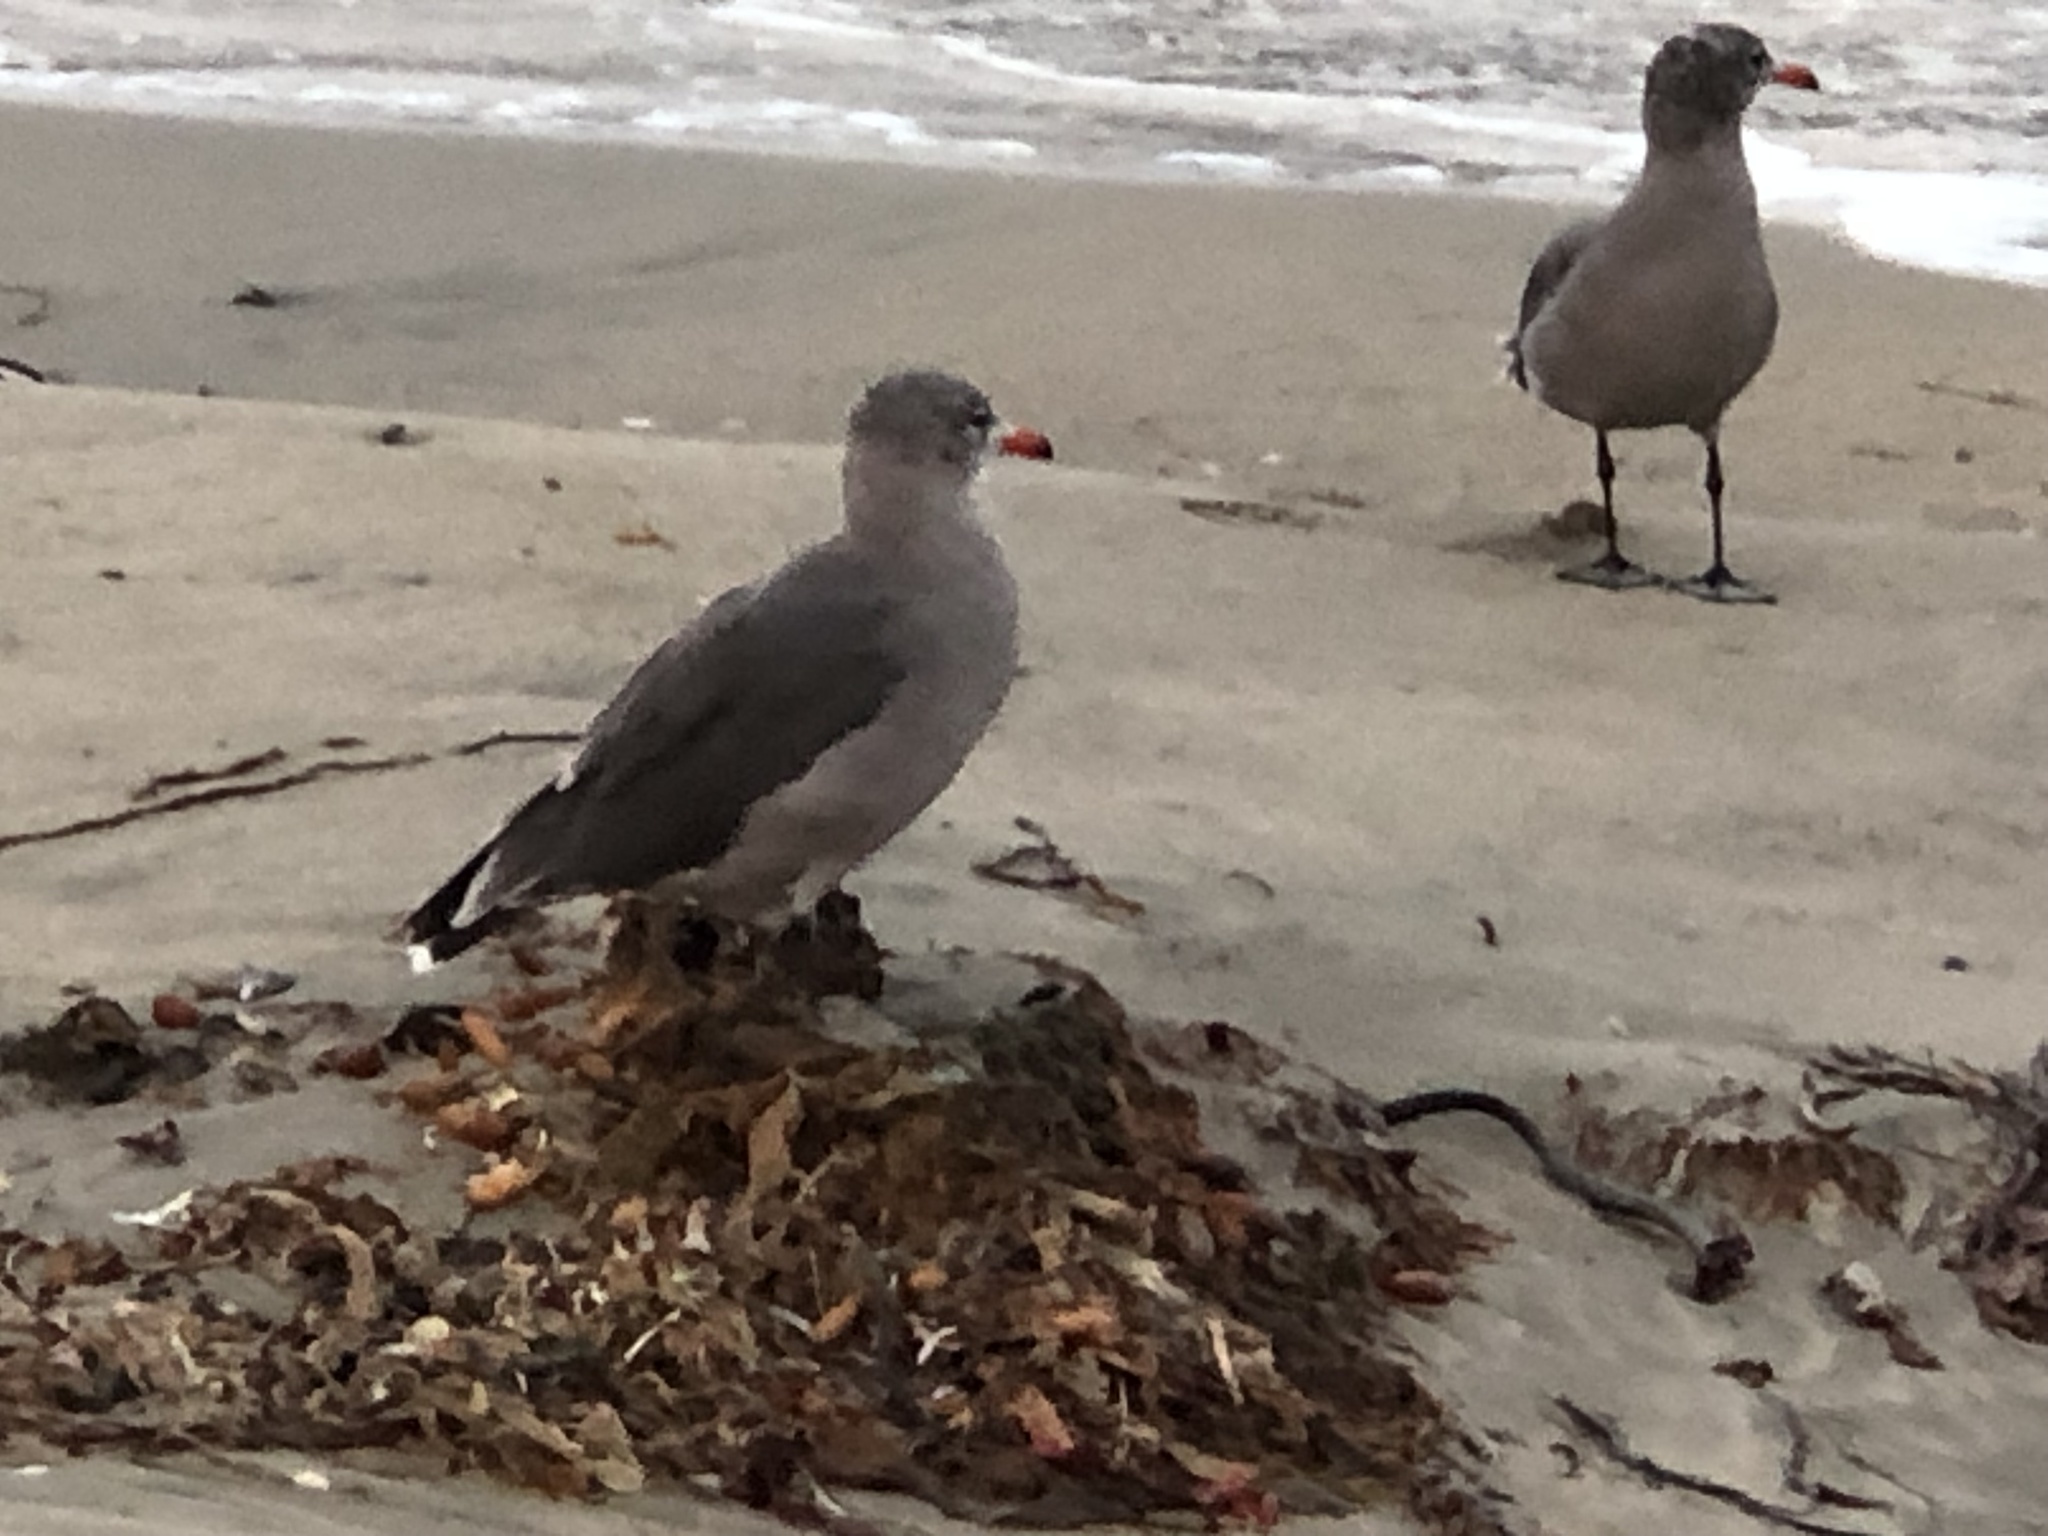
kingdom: Animalia
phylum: Chordata
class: Aves
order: Charadriiformes
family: Laridae
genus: Larus
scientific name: Larus heermanni
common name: Heermann's gull
